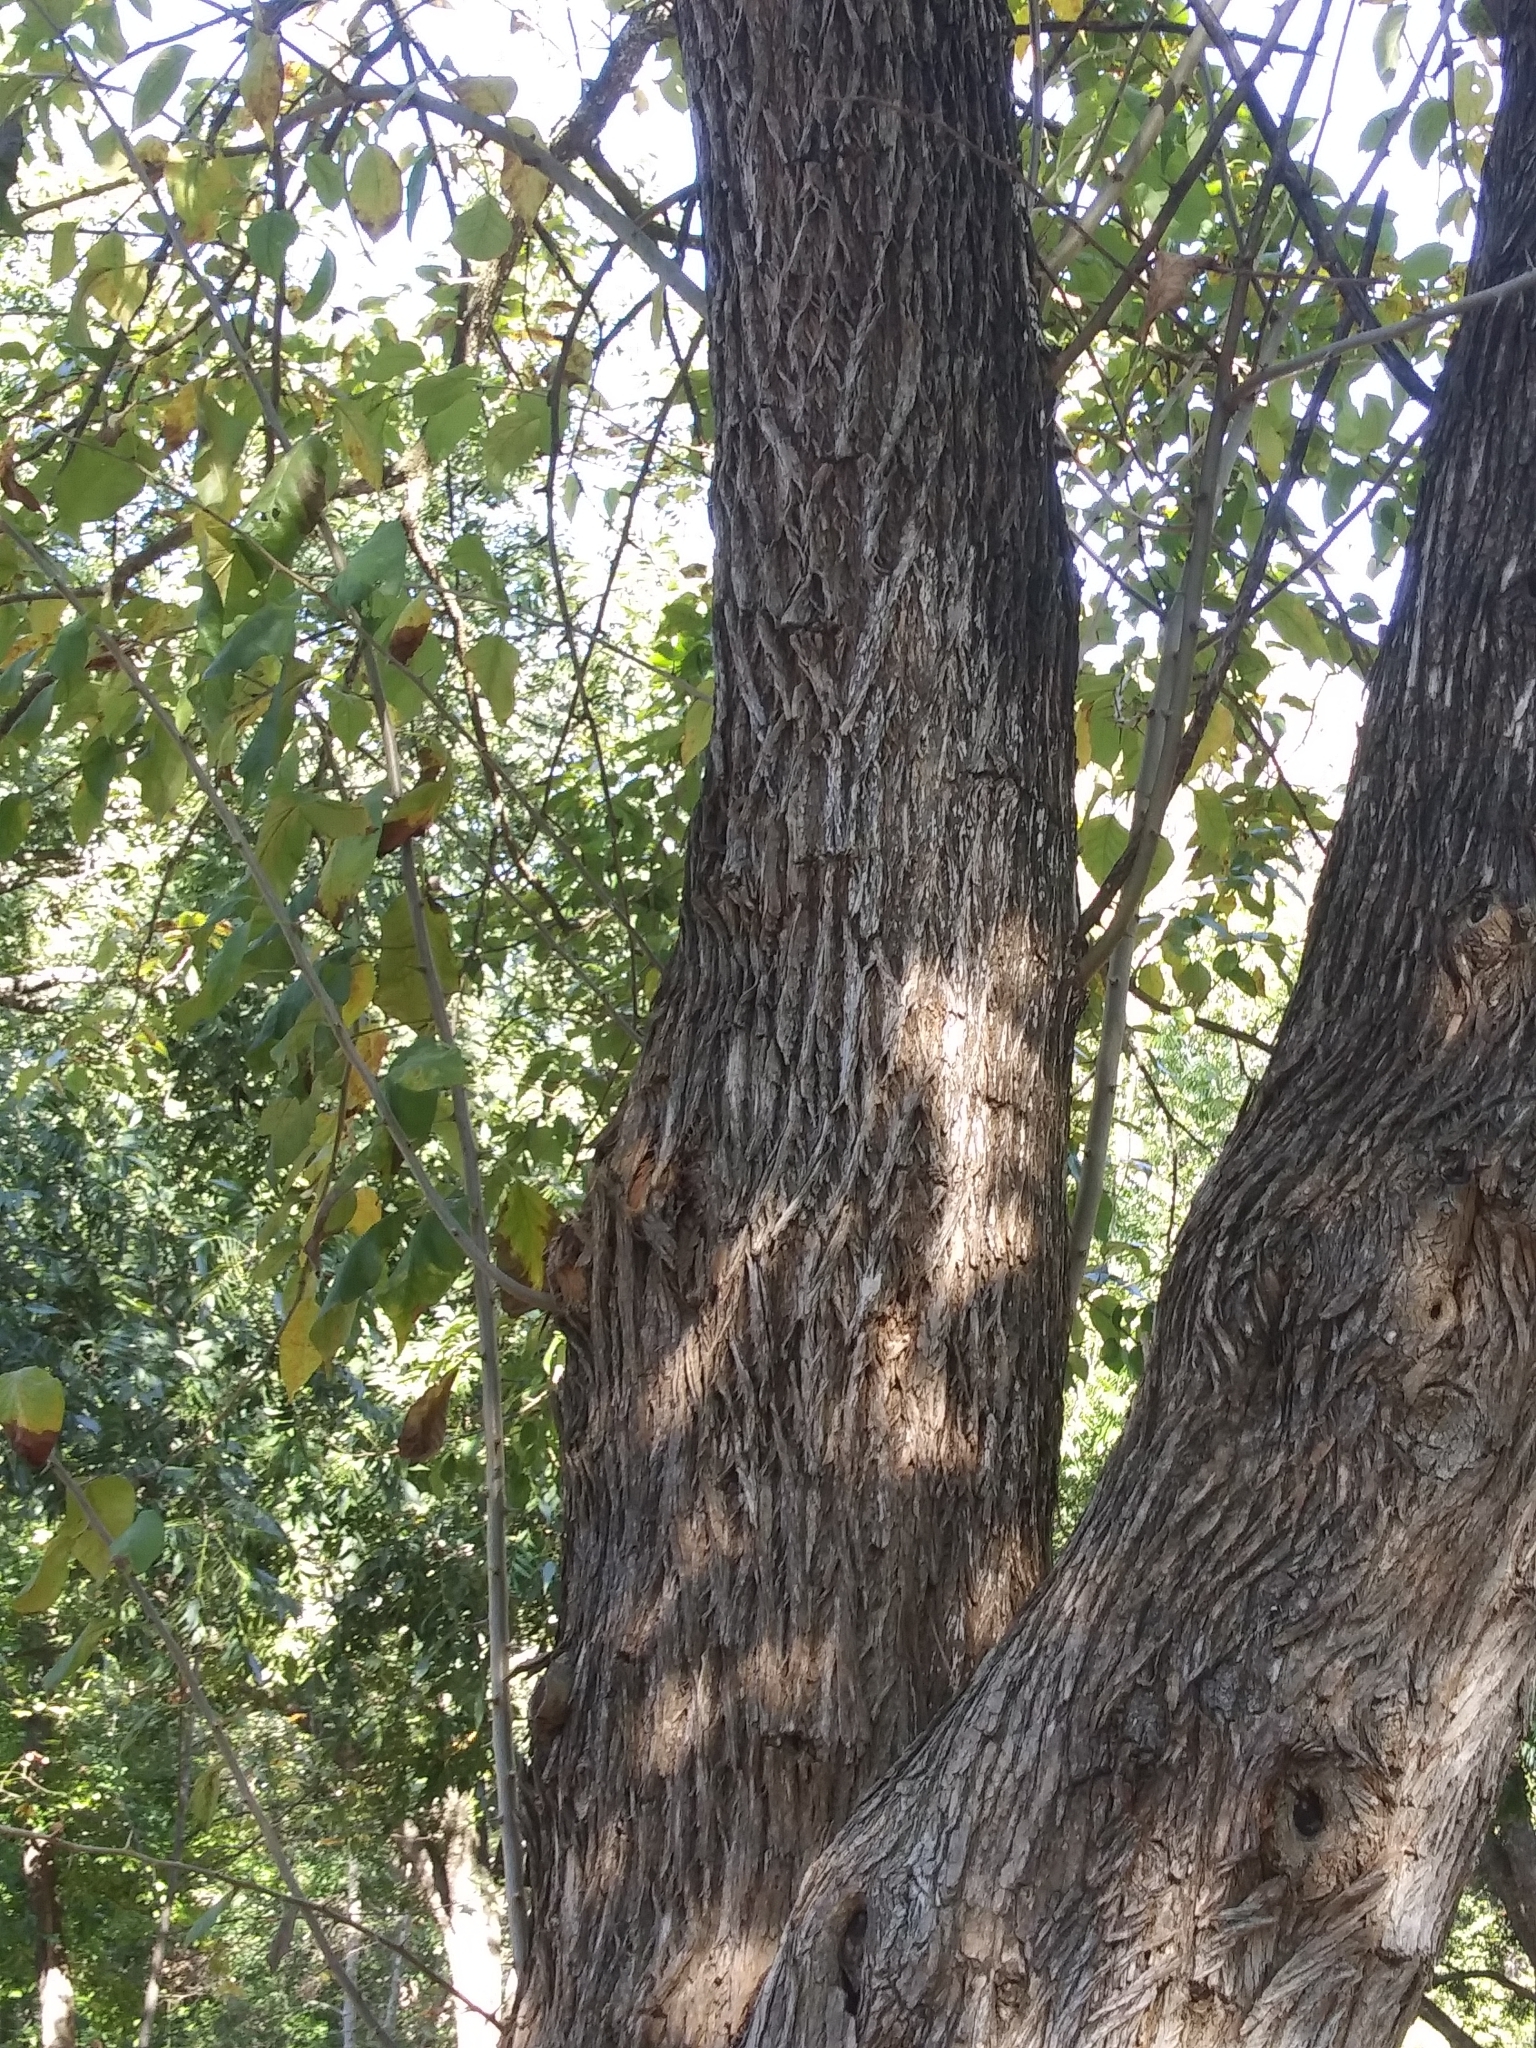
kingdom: Plantae
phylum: Tracheophyta
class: Magnoliopsida
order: Rosales
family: Moraceae
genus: Maclura
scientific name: Maclura pomifera
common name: Osage-orange
